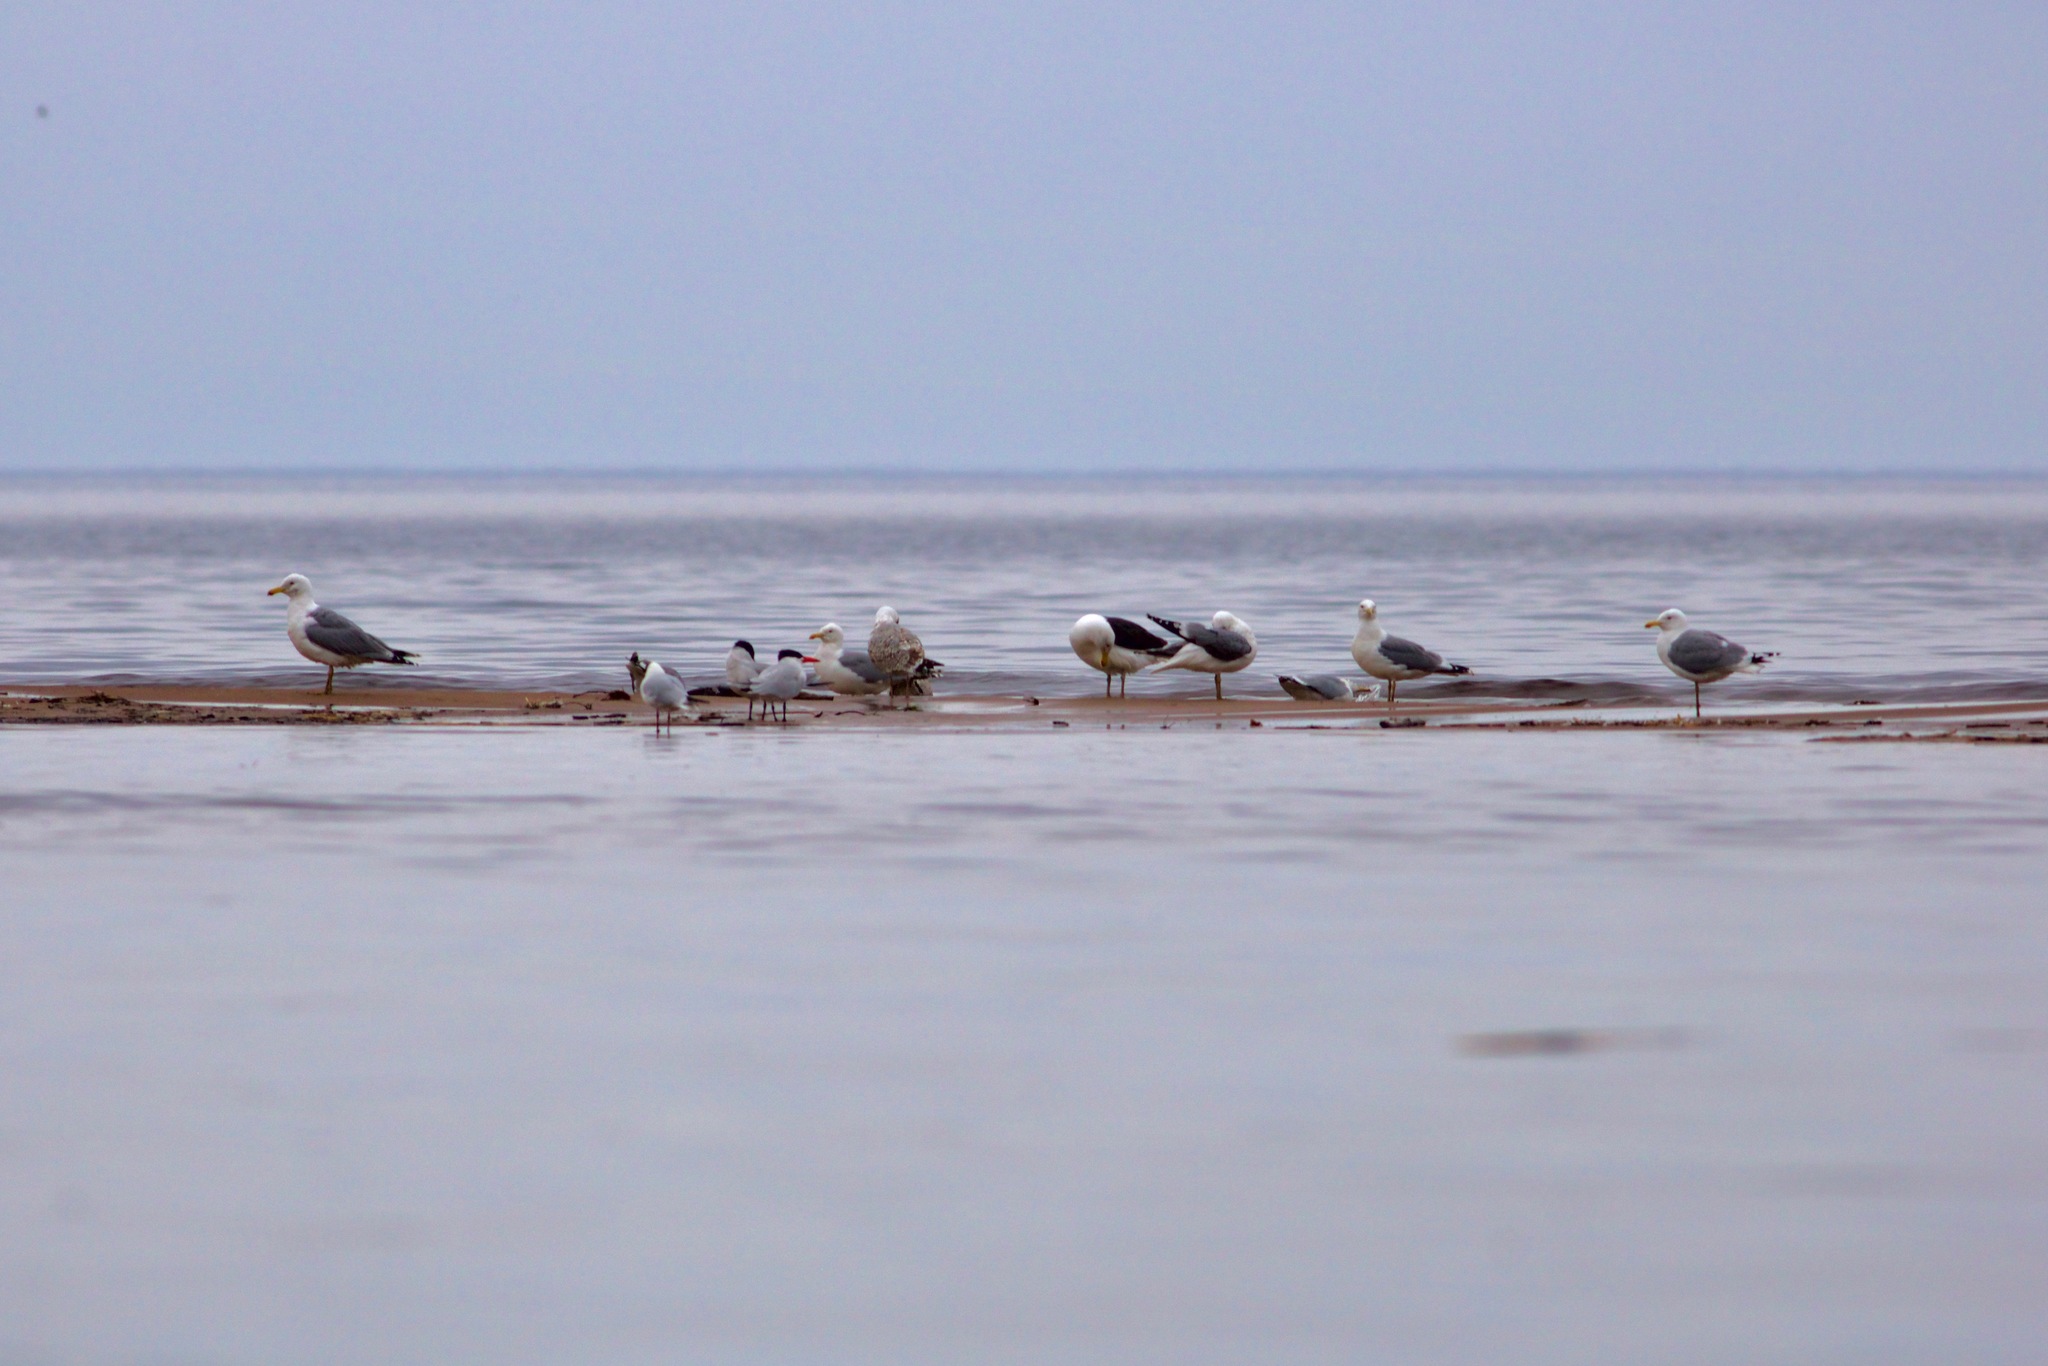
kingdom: Animalia
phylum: Chordata
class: Aves
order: Charadriiformes
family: Laridae
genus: Hydroprogne
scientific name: Hydroprogne caspia
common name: Caspian tern
